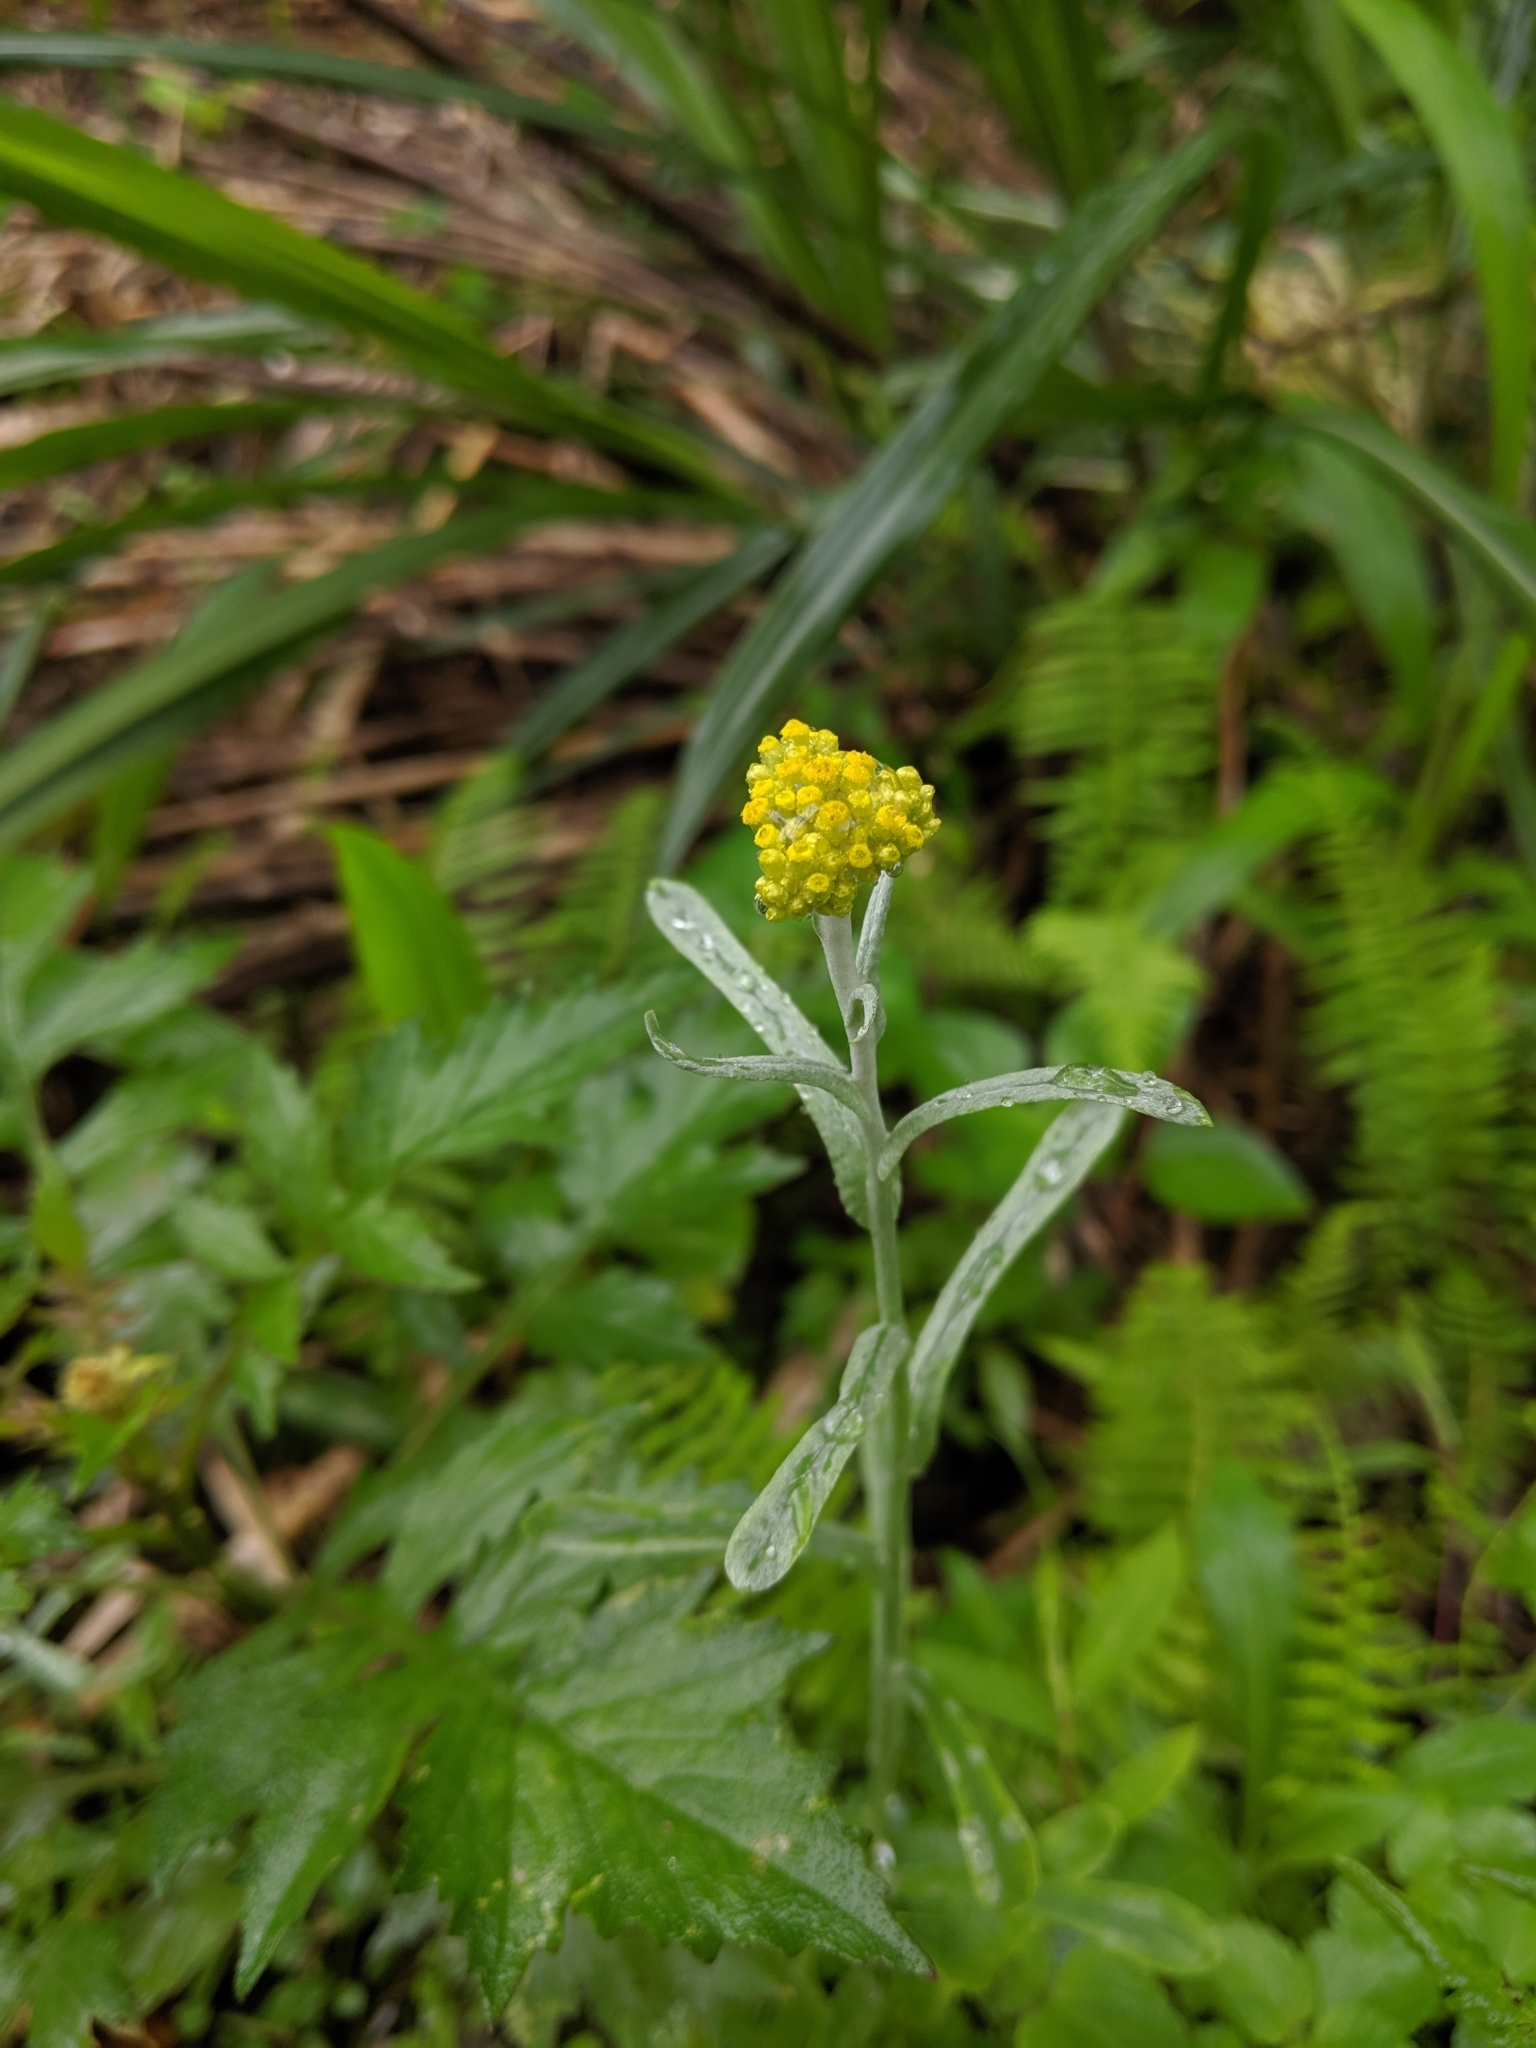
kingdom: Plantae
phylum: Tracheophyta
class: Magnoliopsida
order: Asterales
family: Asteraceae
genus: Pseudognaphalium
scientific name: Pseudognaphalium affine
